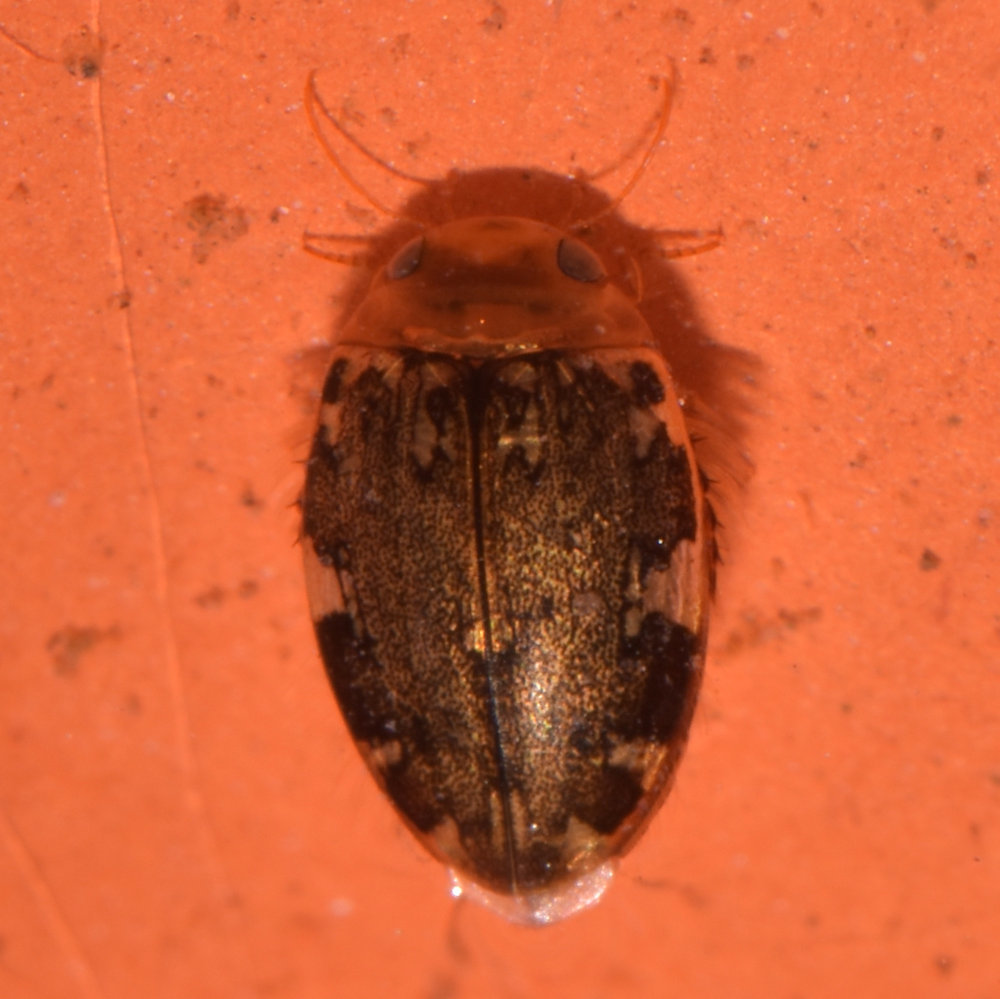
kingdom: Animalia
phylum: Arthropoda
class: Insecta
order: Coleoptera
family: Dytiscidae
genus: Laccophilus
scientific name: Laccophilus maculosus
